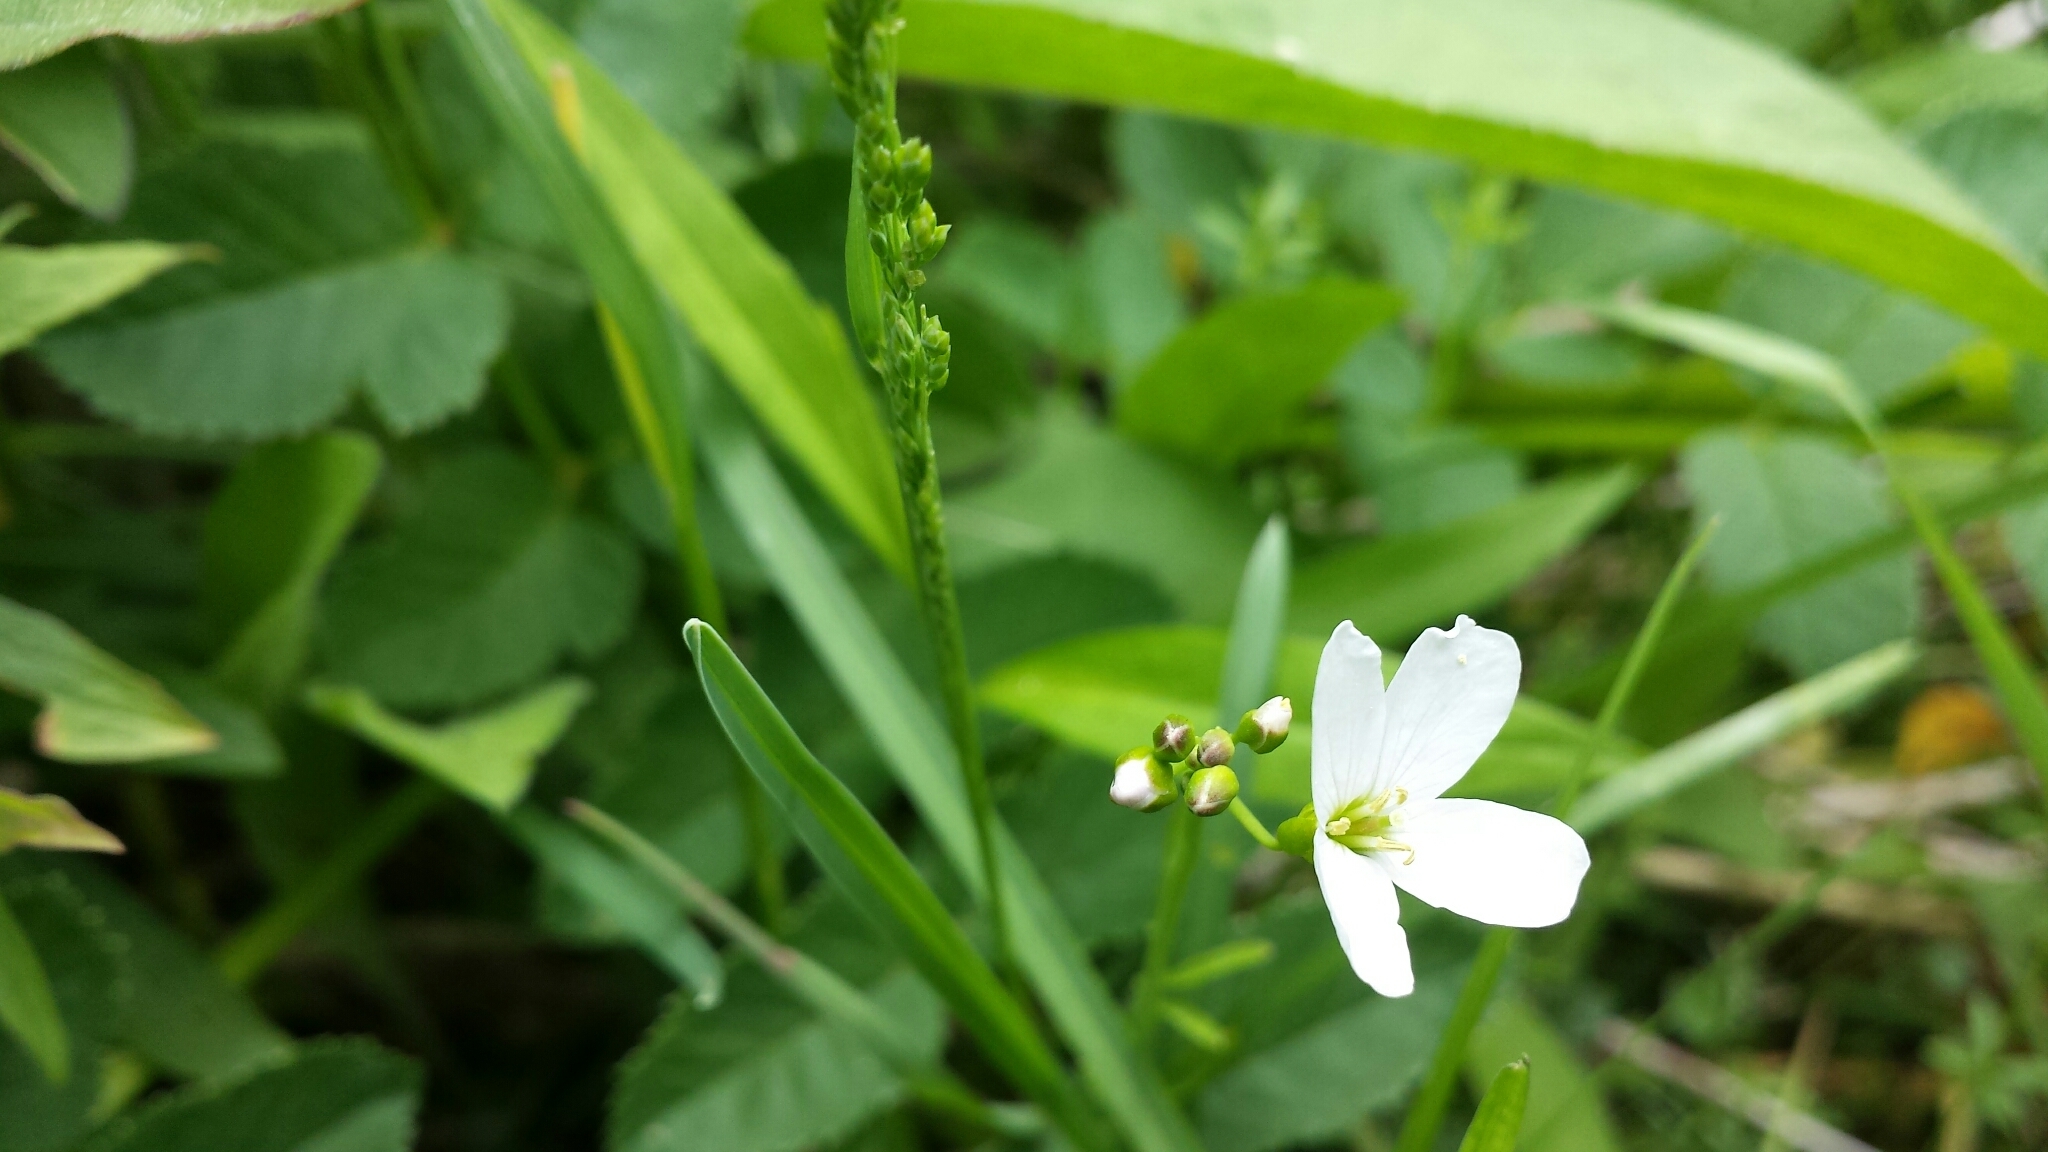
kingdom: Plantae
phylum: Tracheophyta
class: Magnoliopsida
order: Brassicales
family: Brassicaceae
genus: Cardamine
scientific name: Cardamine pratensis
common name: Cuckoo flower
